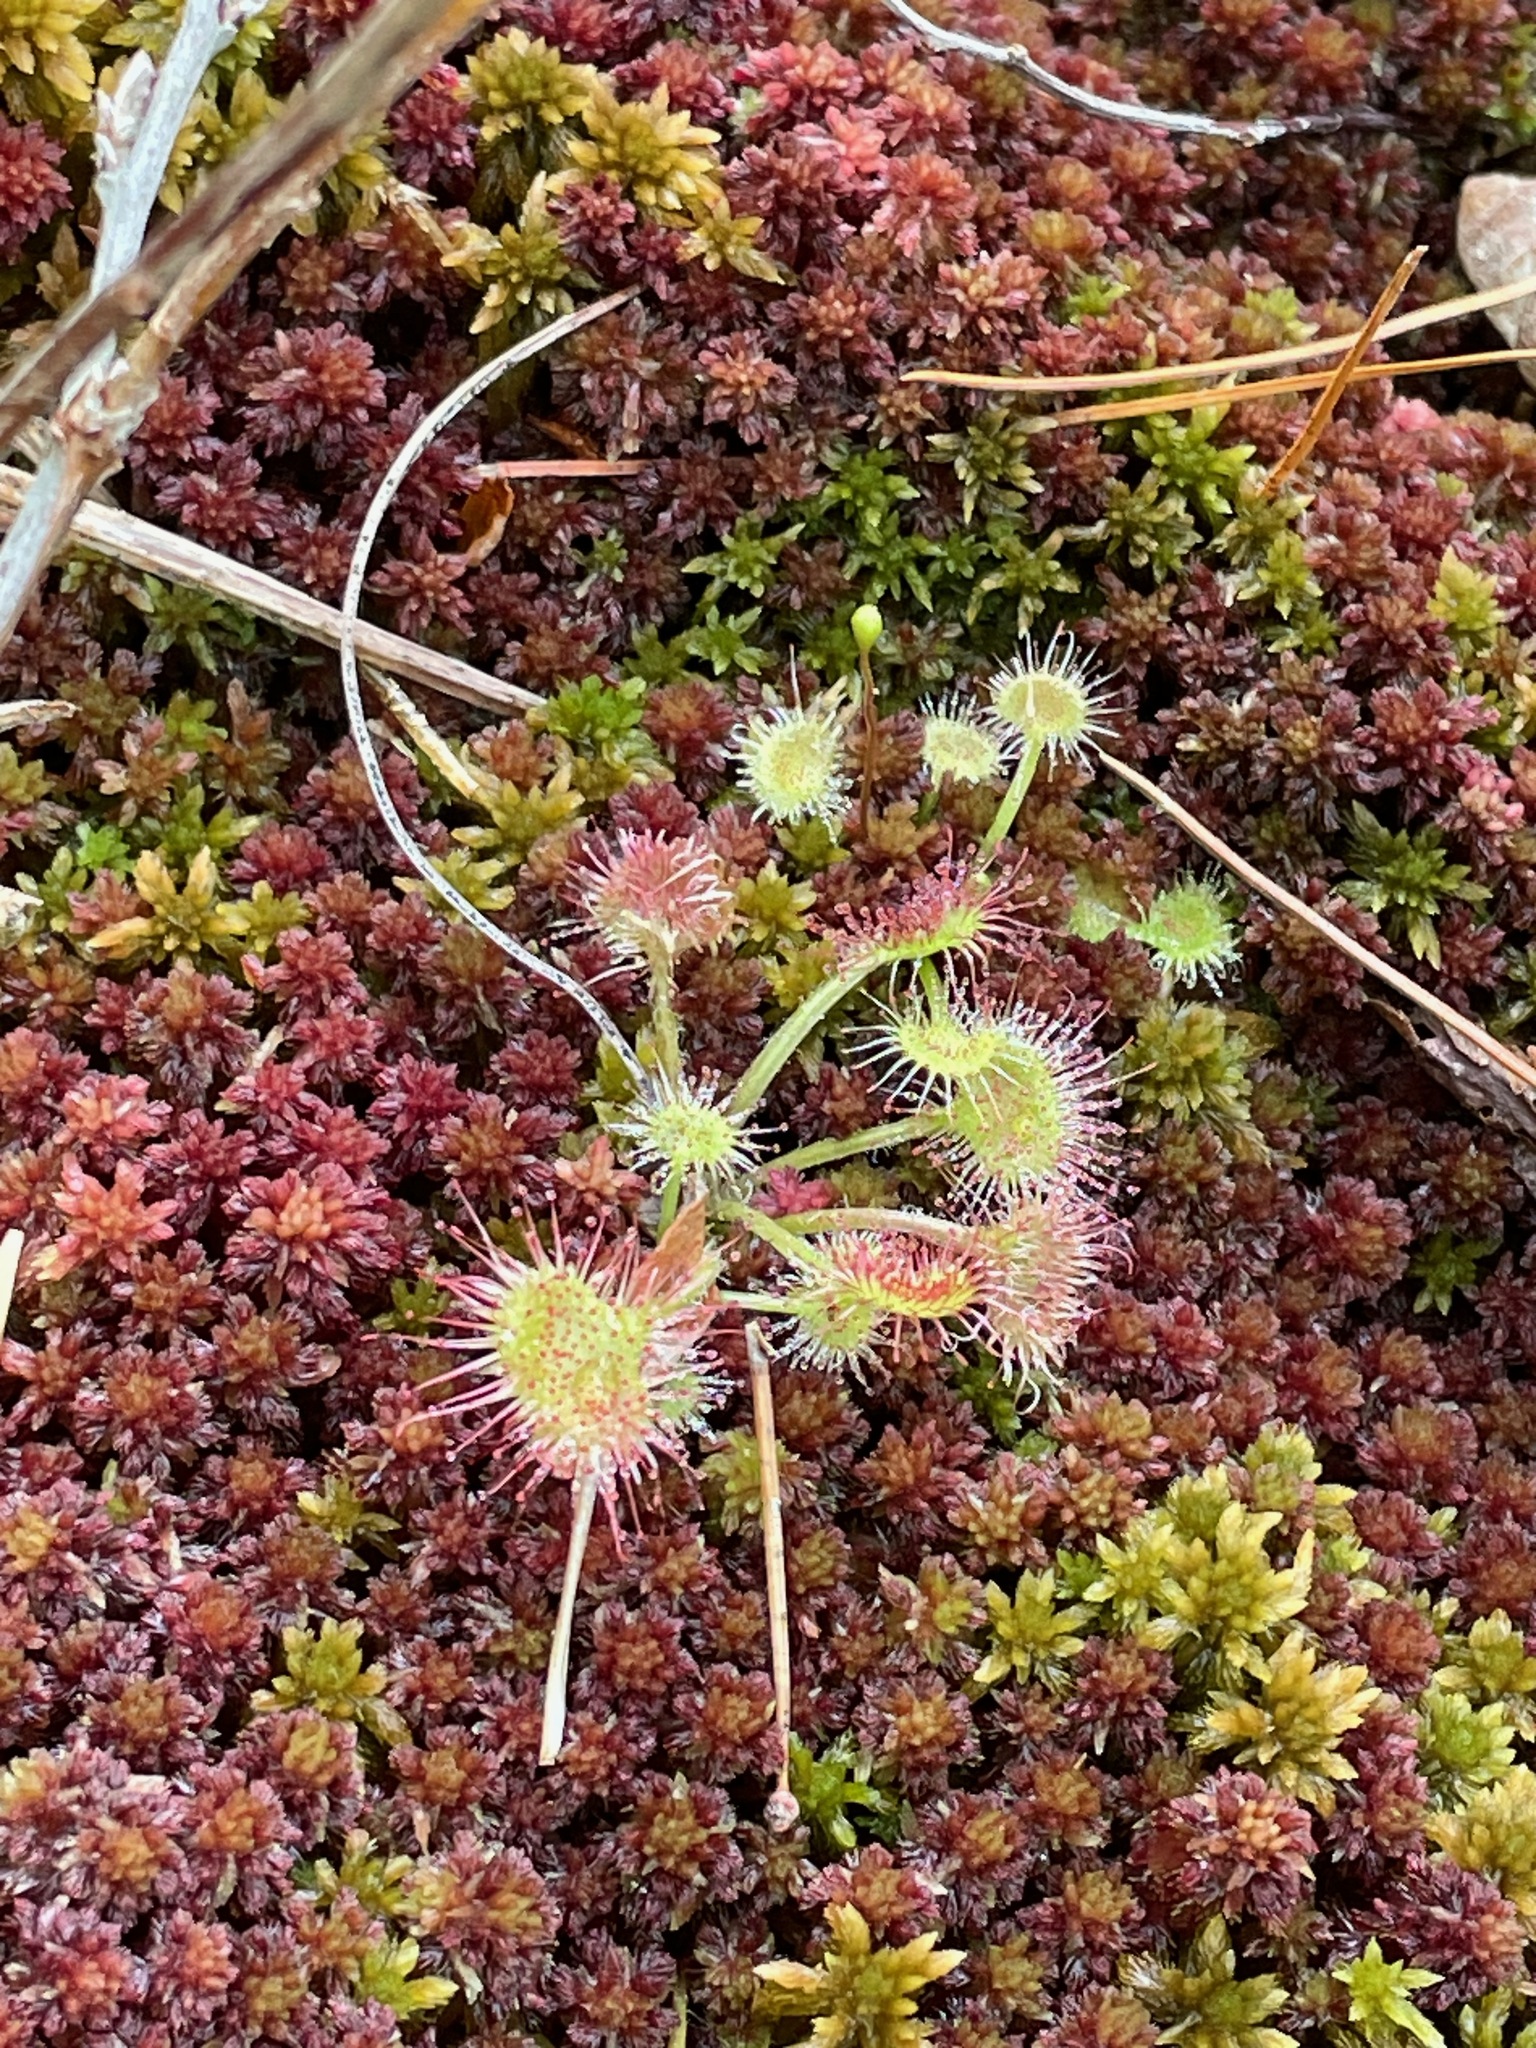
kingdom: Plantae
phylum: Tracheophyta
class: Magnoliopsida
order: Caryophyllales
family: Droseraceae
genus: Drosera
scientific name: Drosera rotundifolia
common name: Round-leaved sundew
